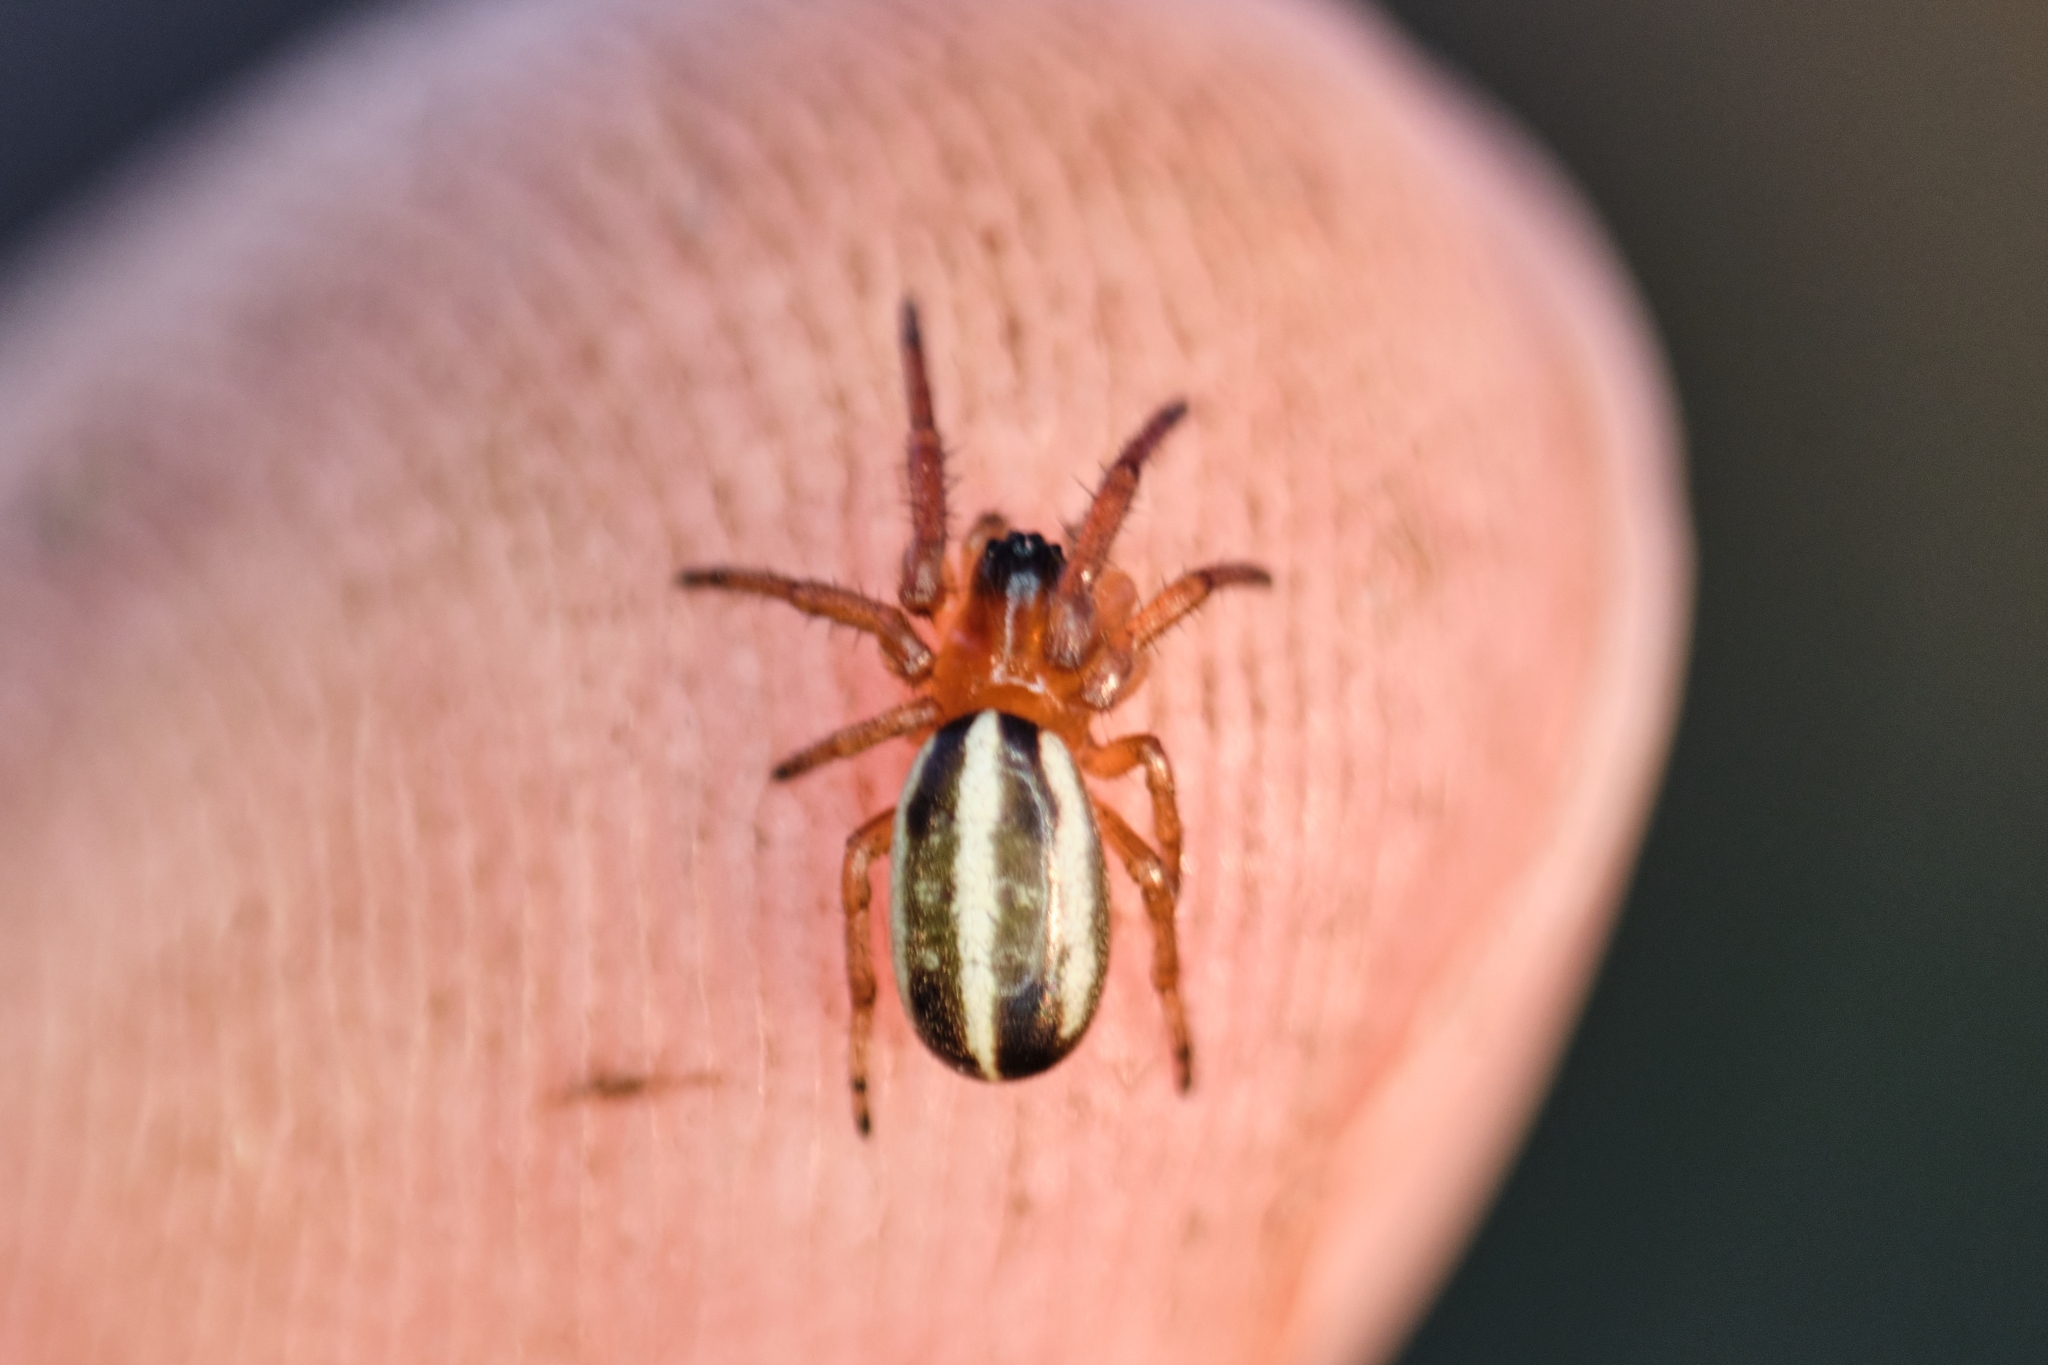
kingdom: Animalia
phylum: Arthropoda
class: Arachnida
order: Araneae
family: Araneidae
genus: Singa
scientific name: Singa nitidula
